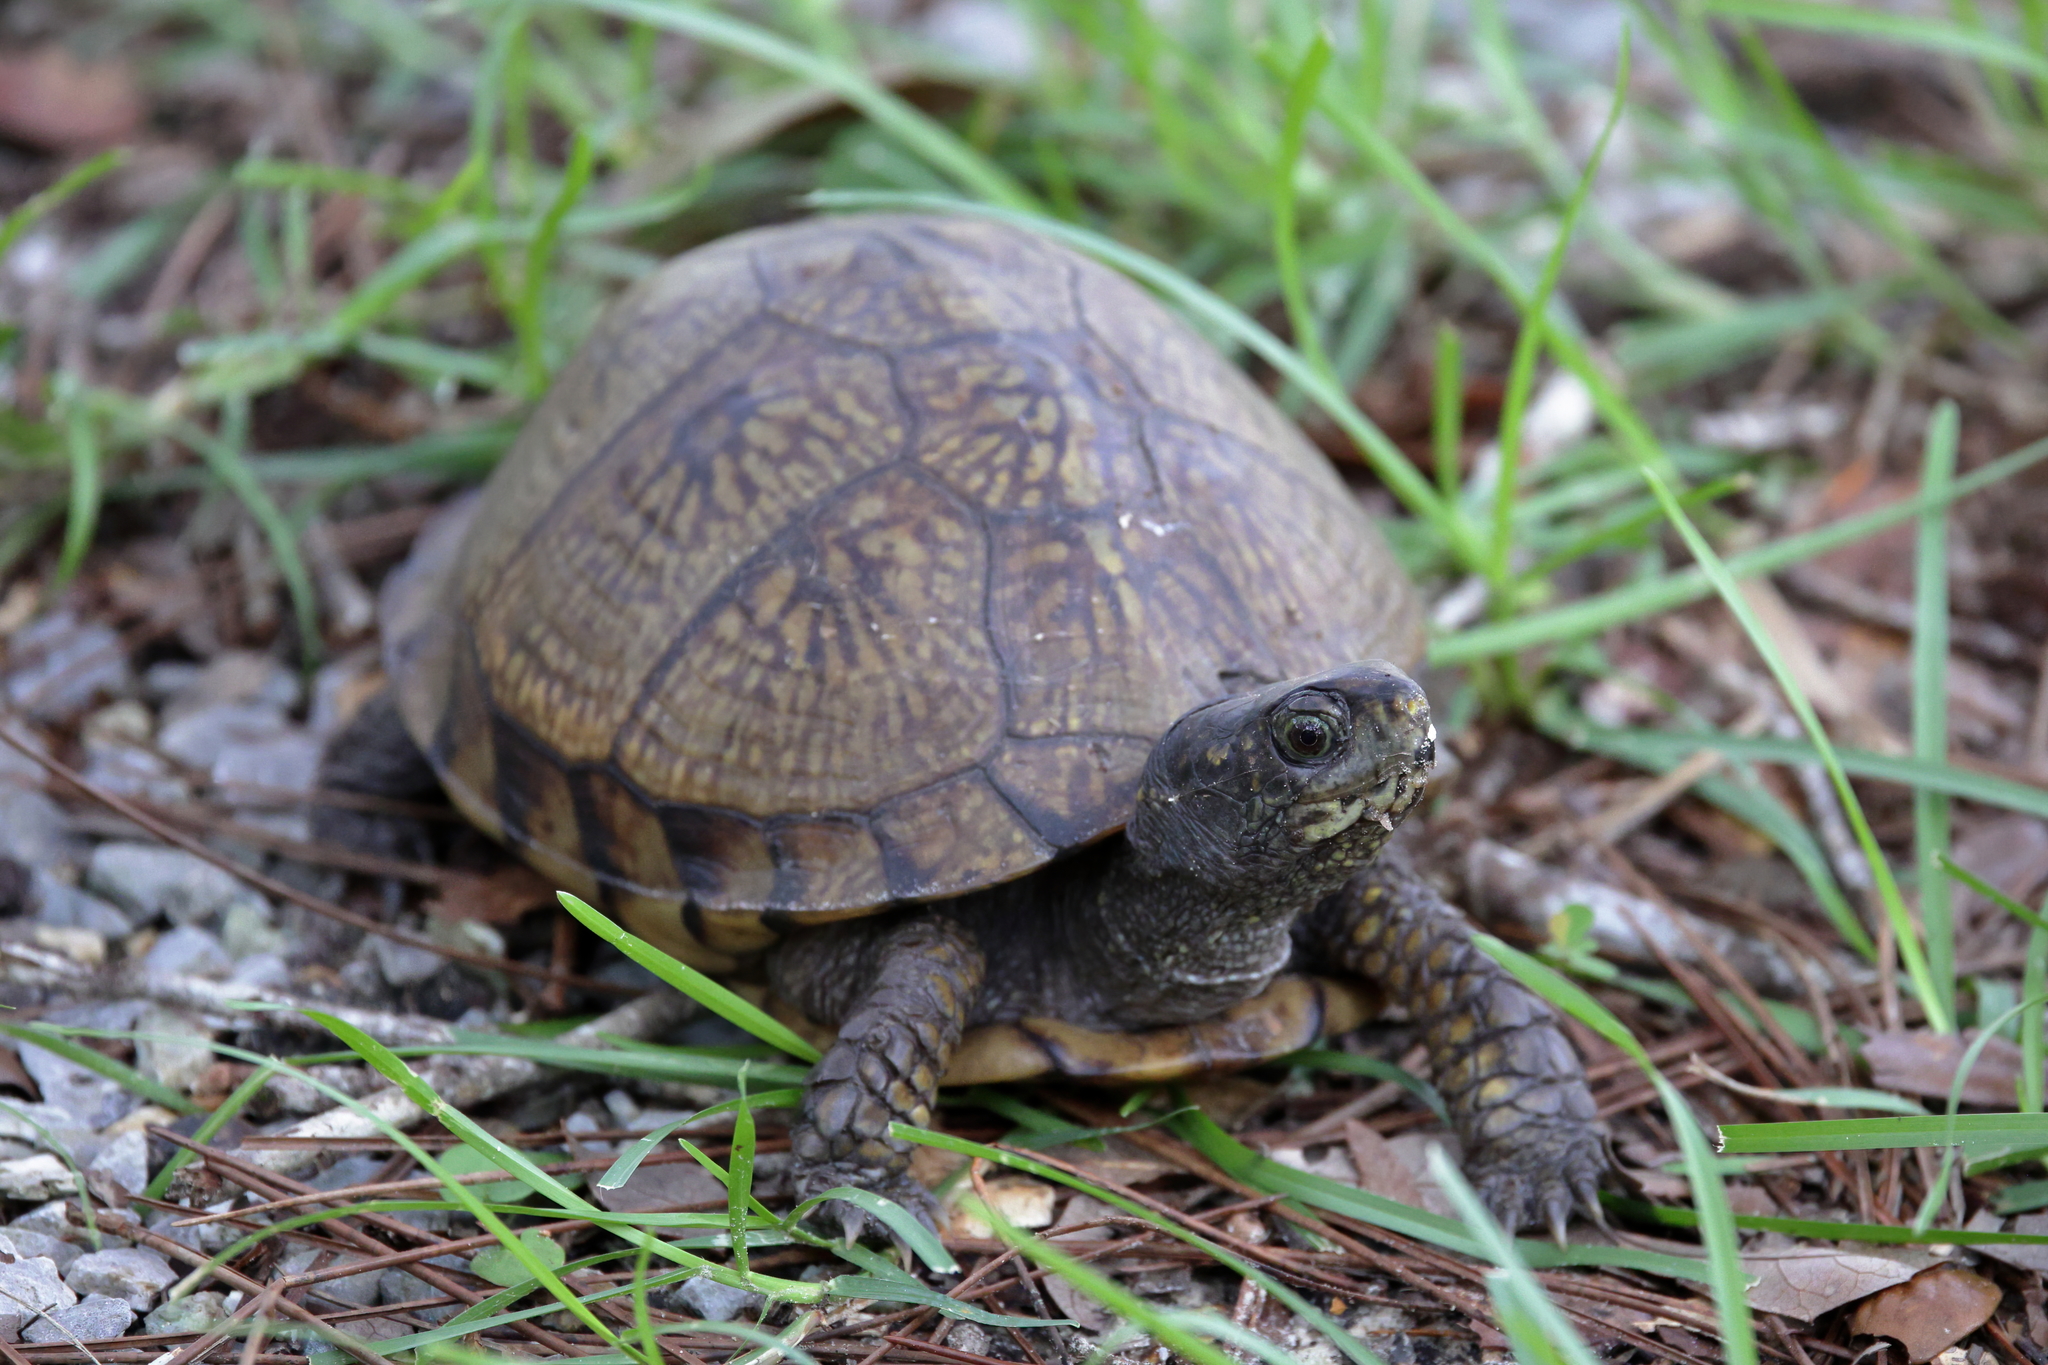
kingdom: Animalia
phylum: Chordata
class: Testudines
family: Emydidae
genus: Terrapene
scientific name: Terrapene carolina
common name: Common box turtle
